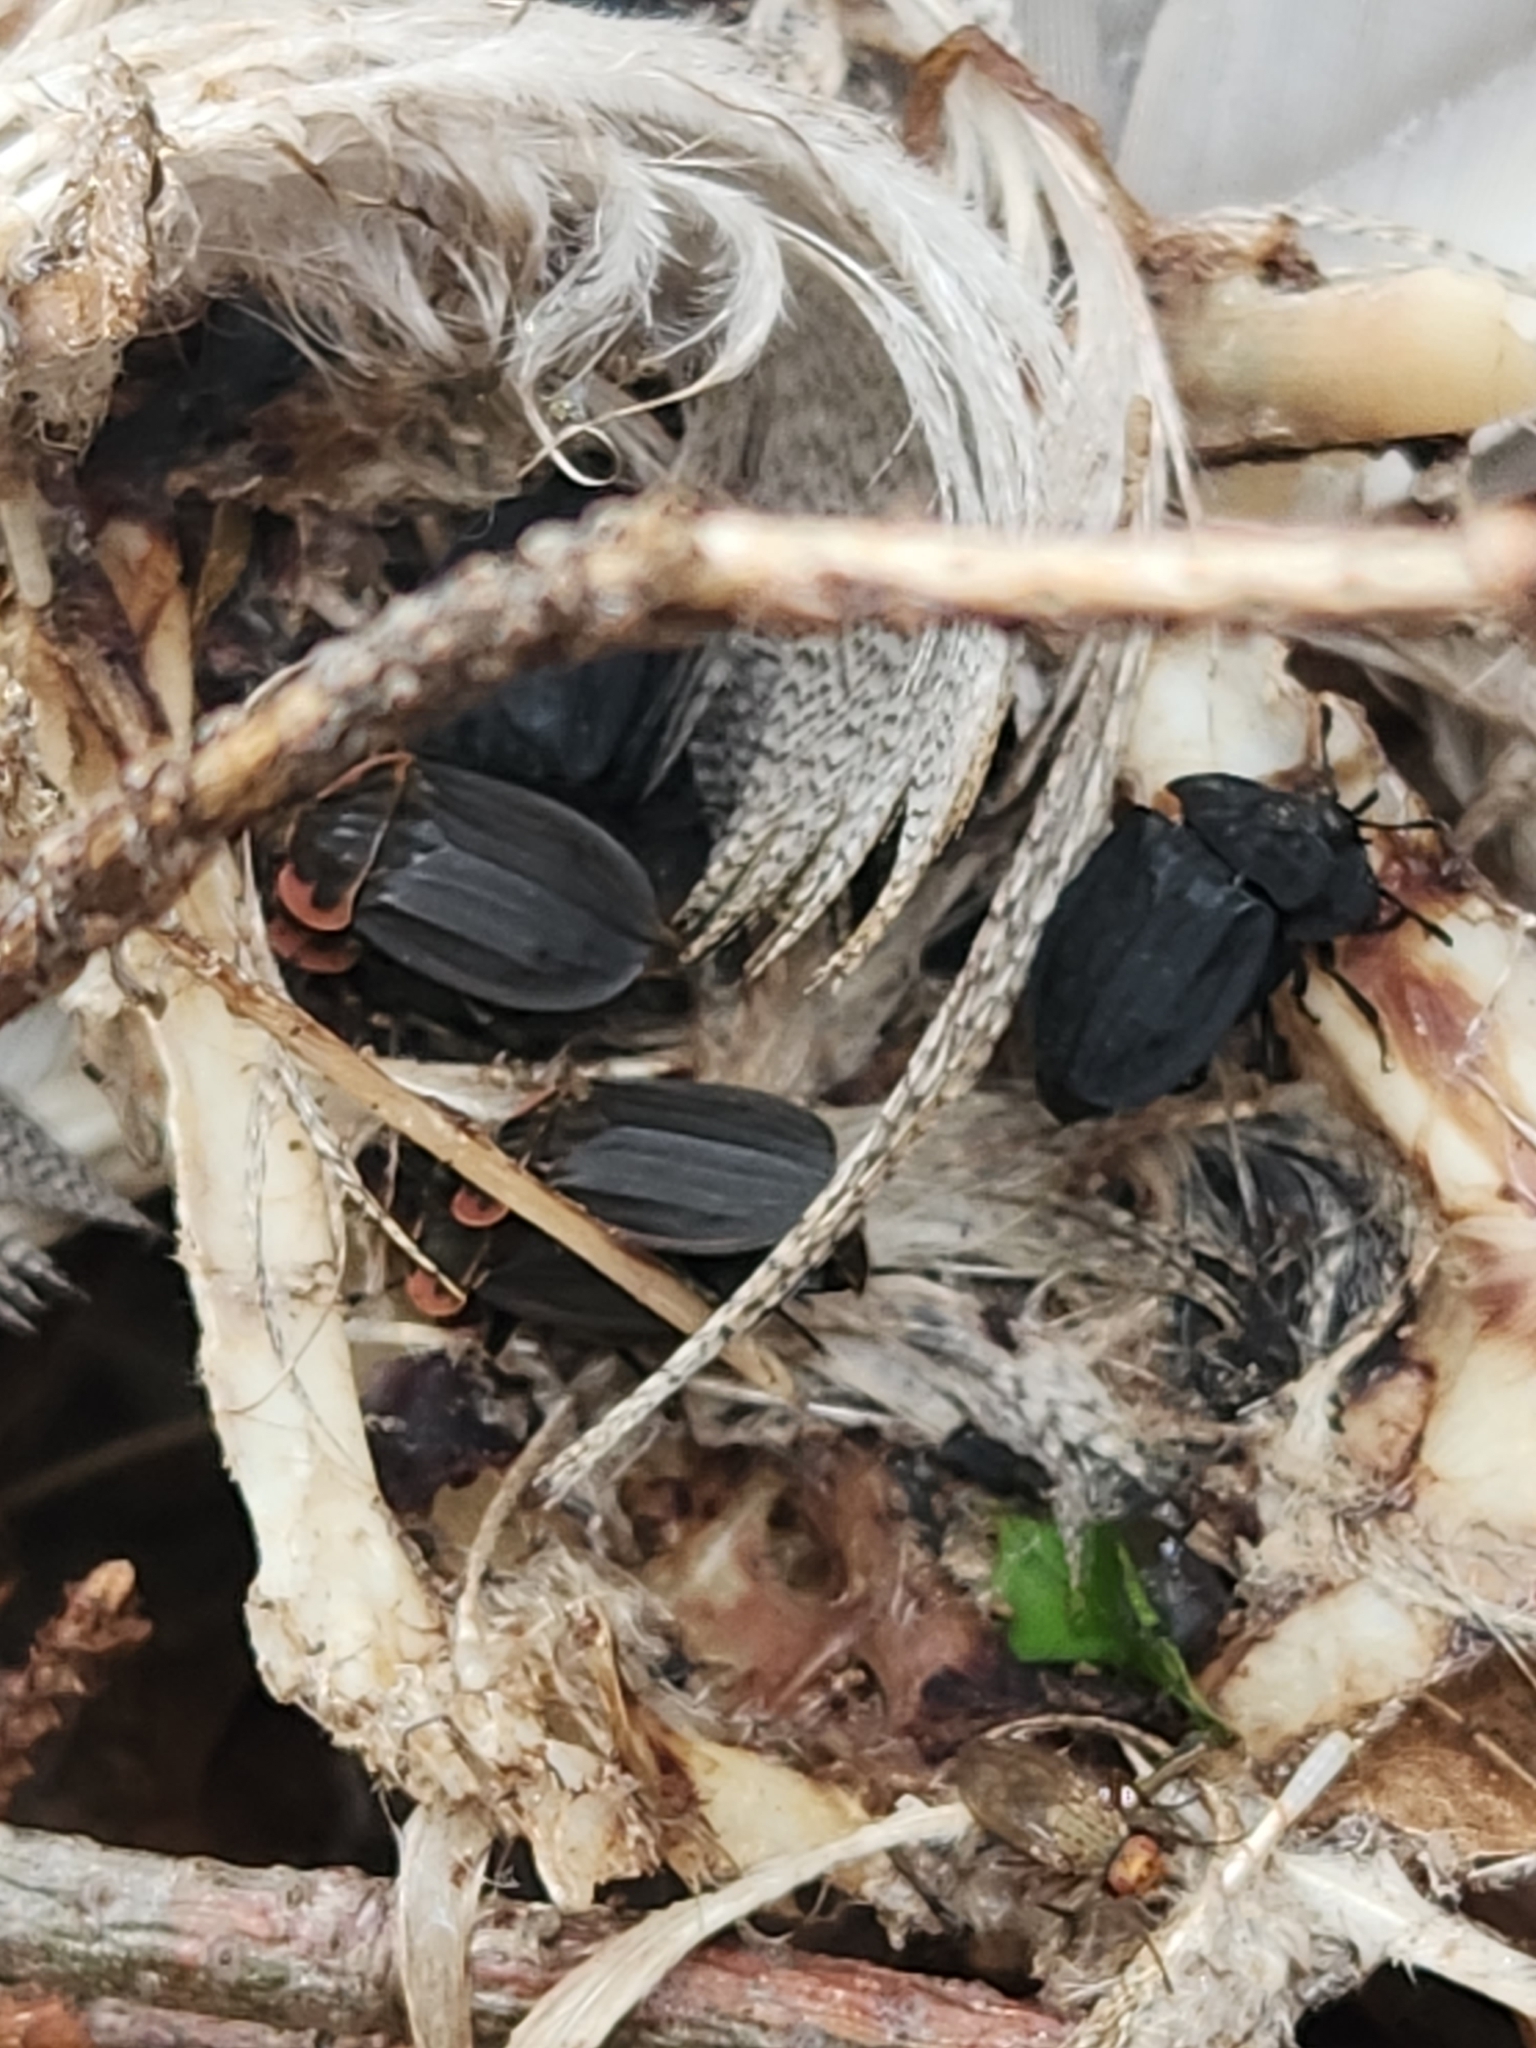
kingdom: Animalia
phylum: Arthropoda
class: Insecta
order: Coleoptera
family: Staphylinidae
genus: Oiceoptoma
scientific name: Oiceoptoma noveboracense
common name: Margined carrion beetle
